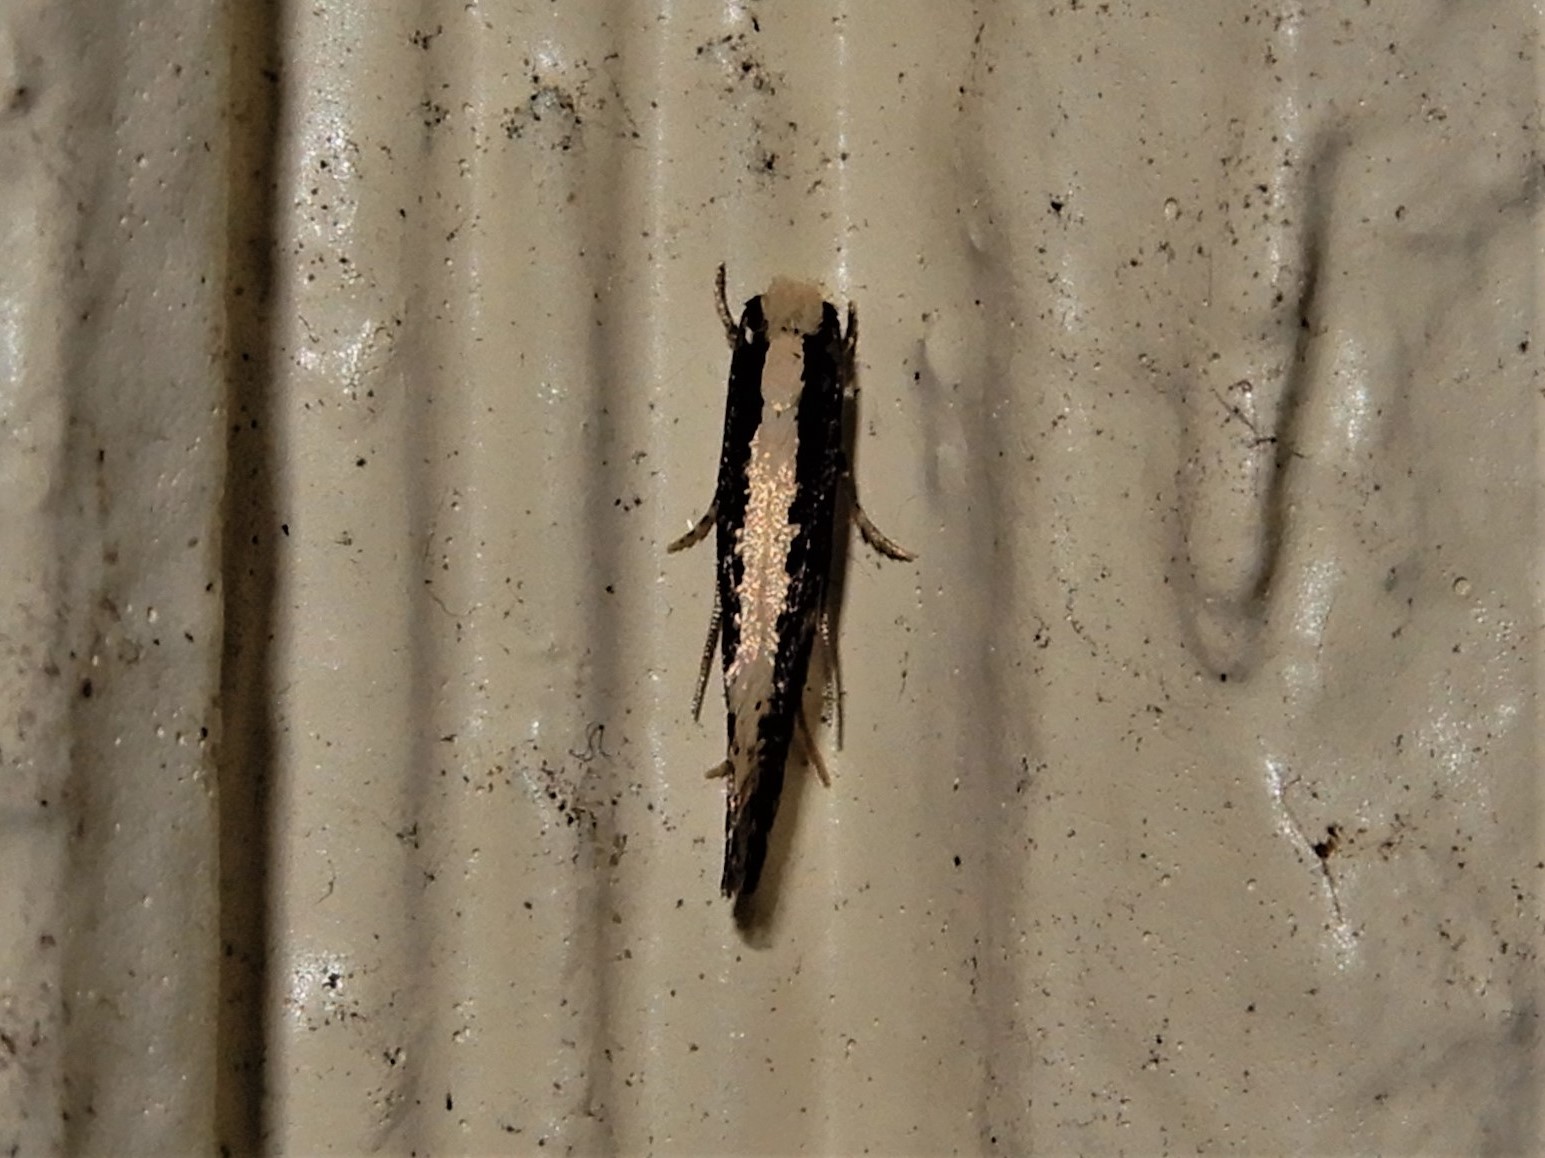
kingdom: Animalia
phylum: Arthropoda
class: Insecta
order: Lepidoptera
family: Tineidae
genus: Monopis
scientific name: Monopis ethelella
